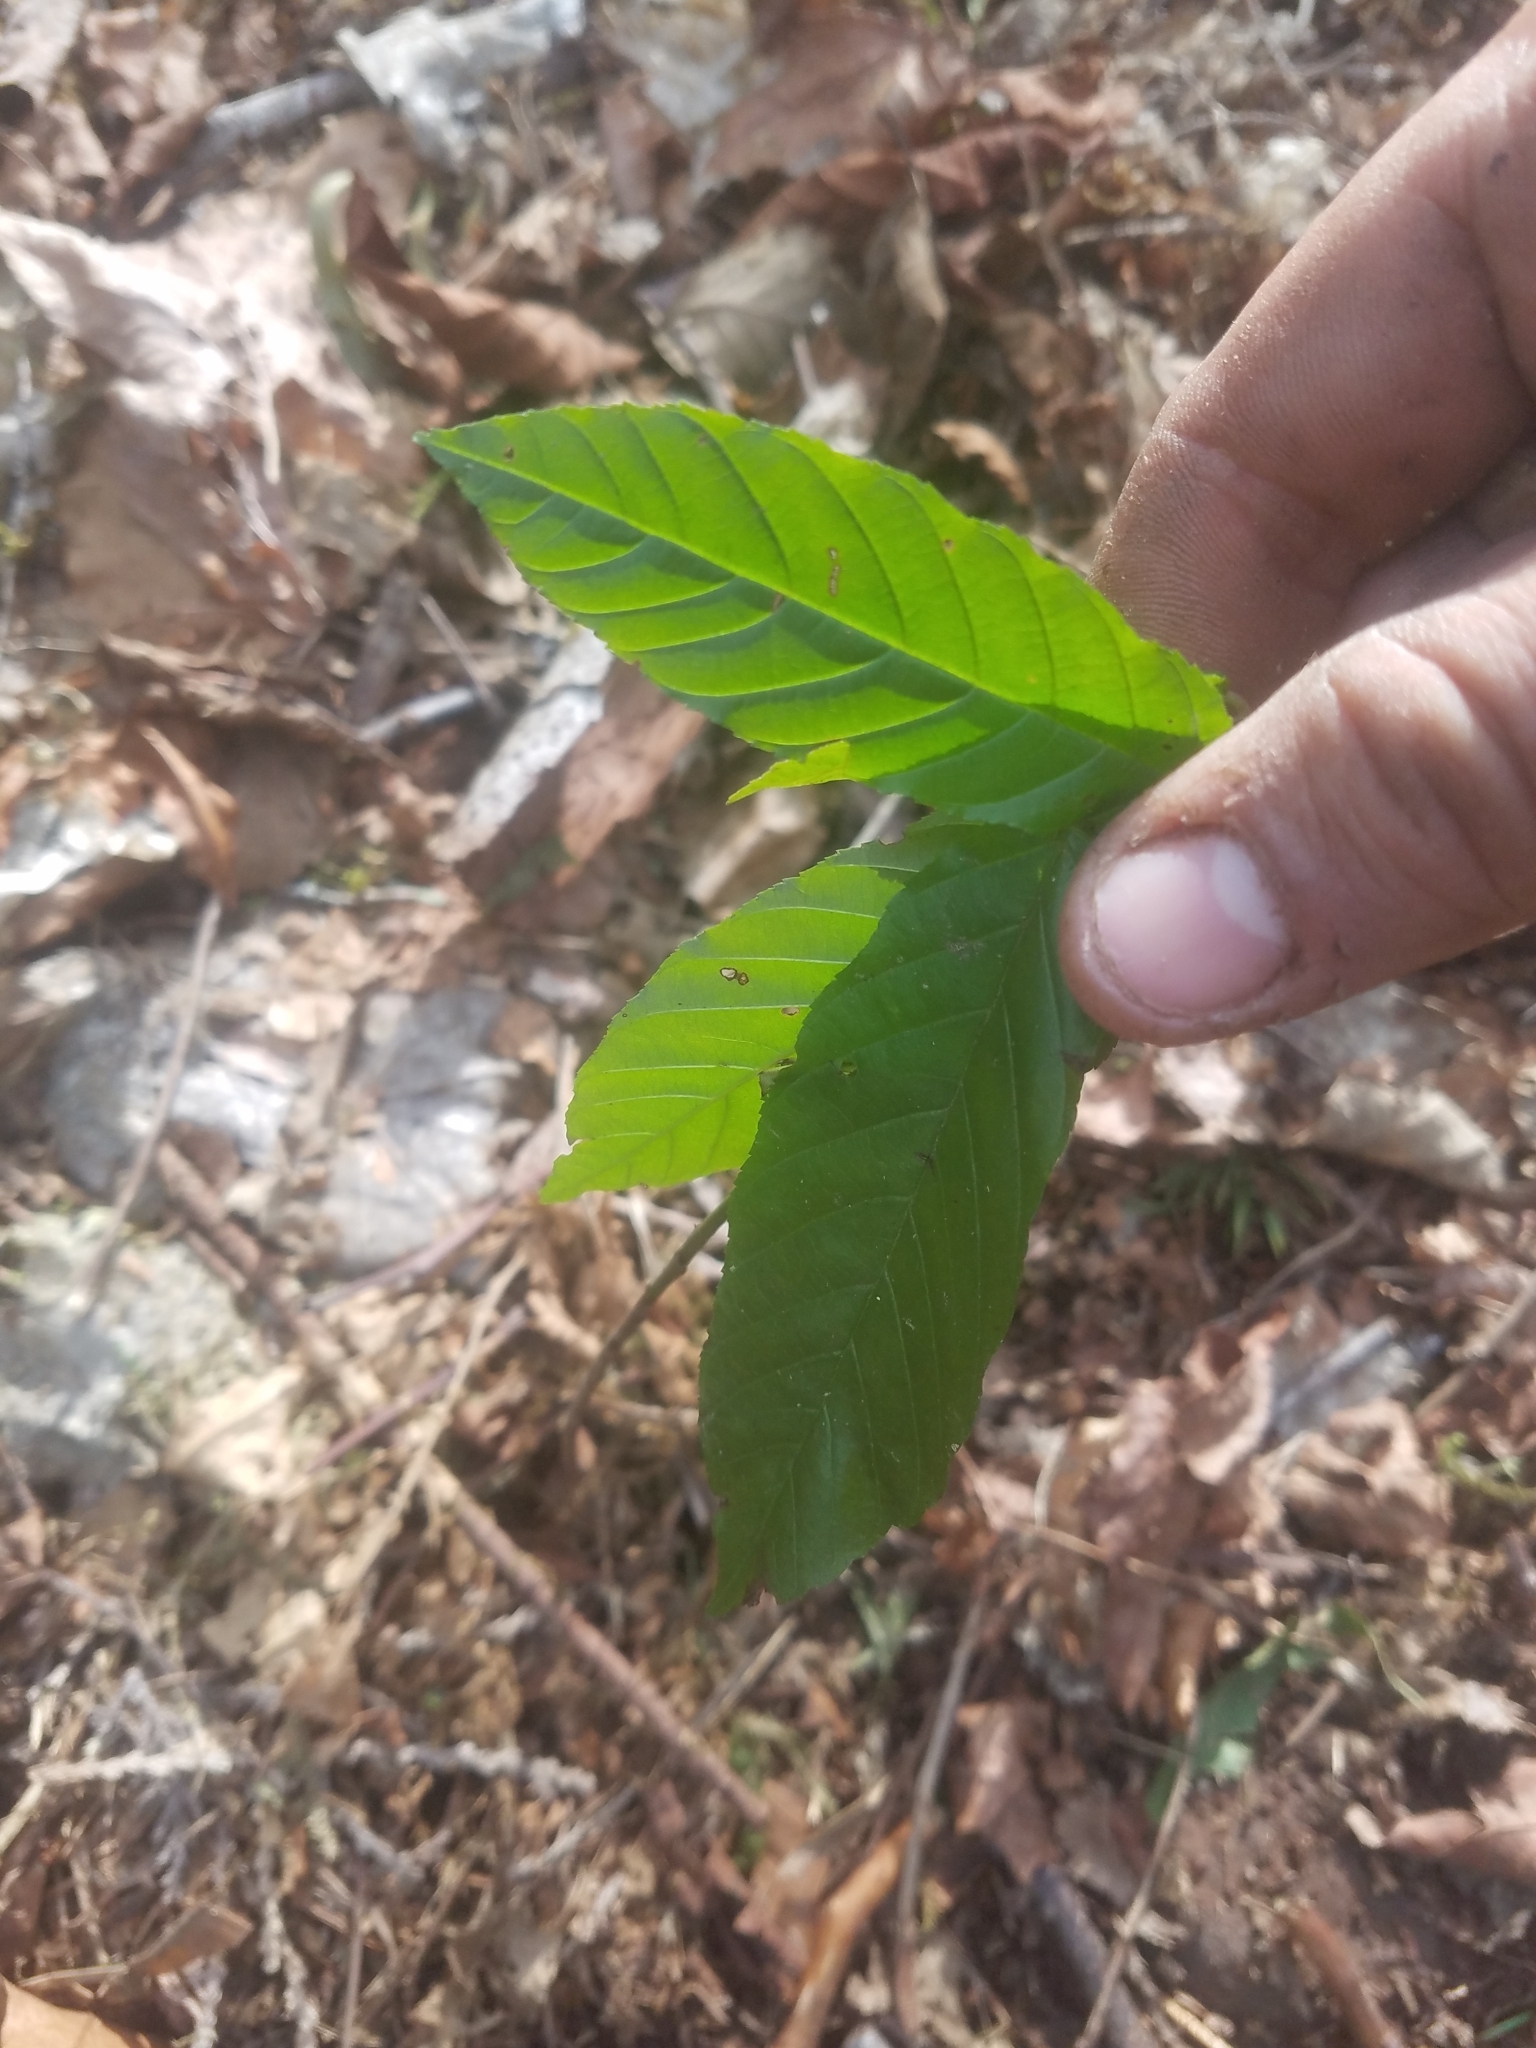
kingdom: Plantae
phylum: Tracheophyta
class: Magnoliopsida
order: Rosales
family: Rhamnaceae
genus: Frangula
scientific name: Frangula purshiana
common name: Cascara buckthorn
